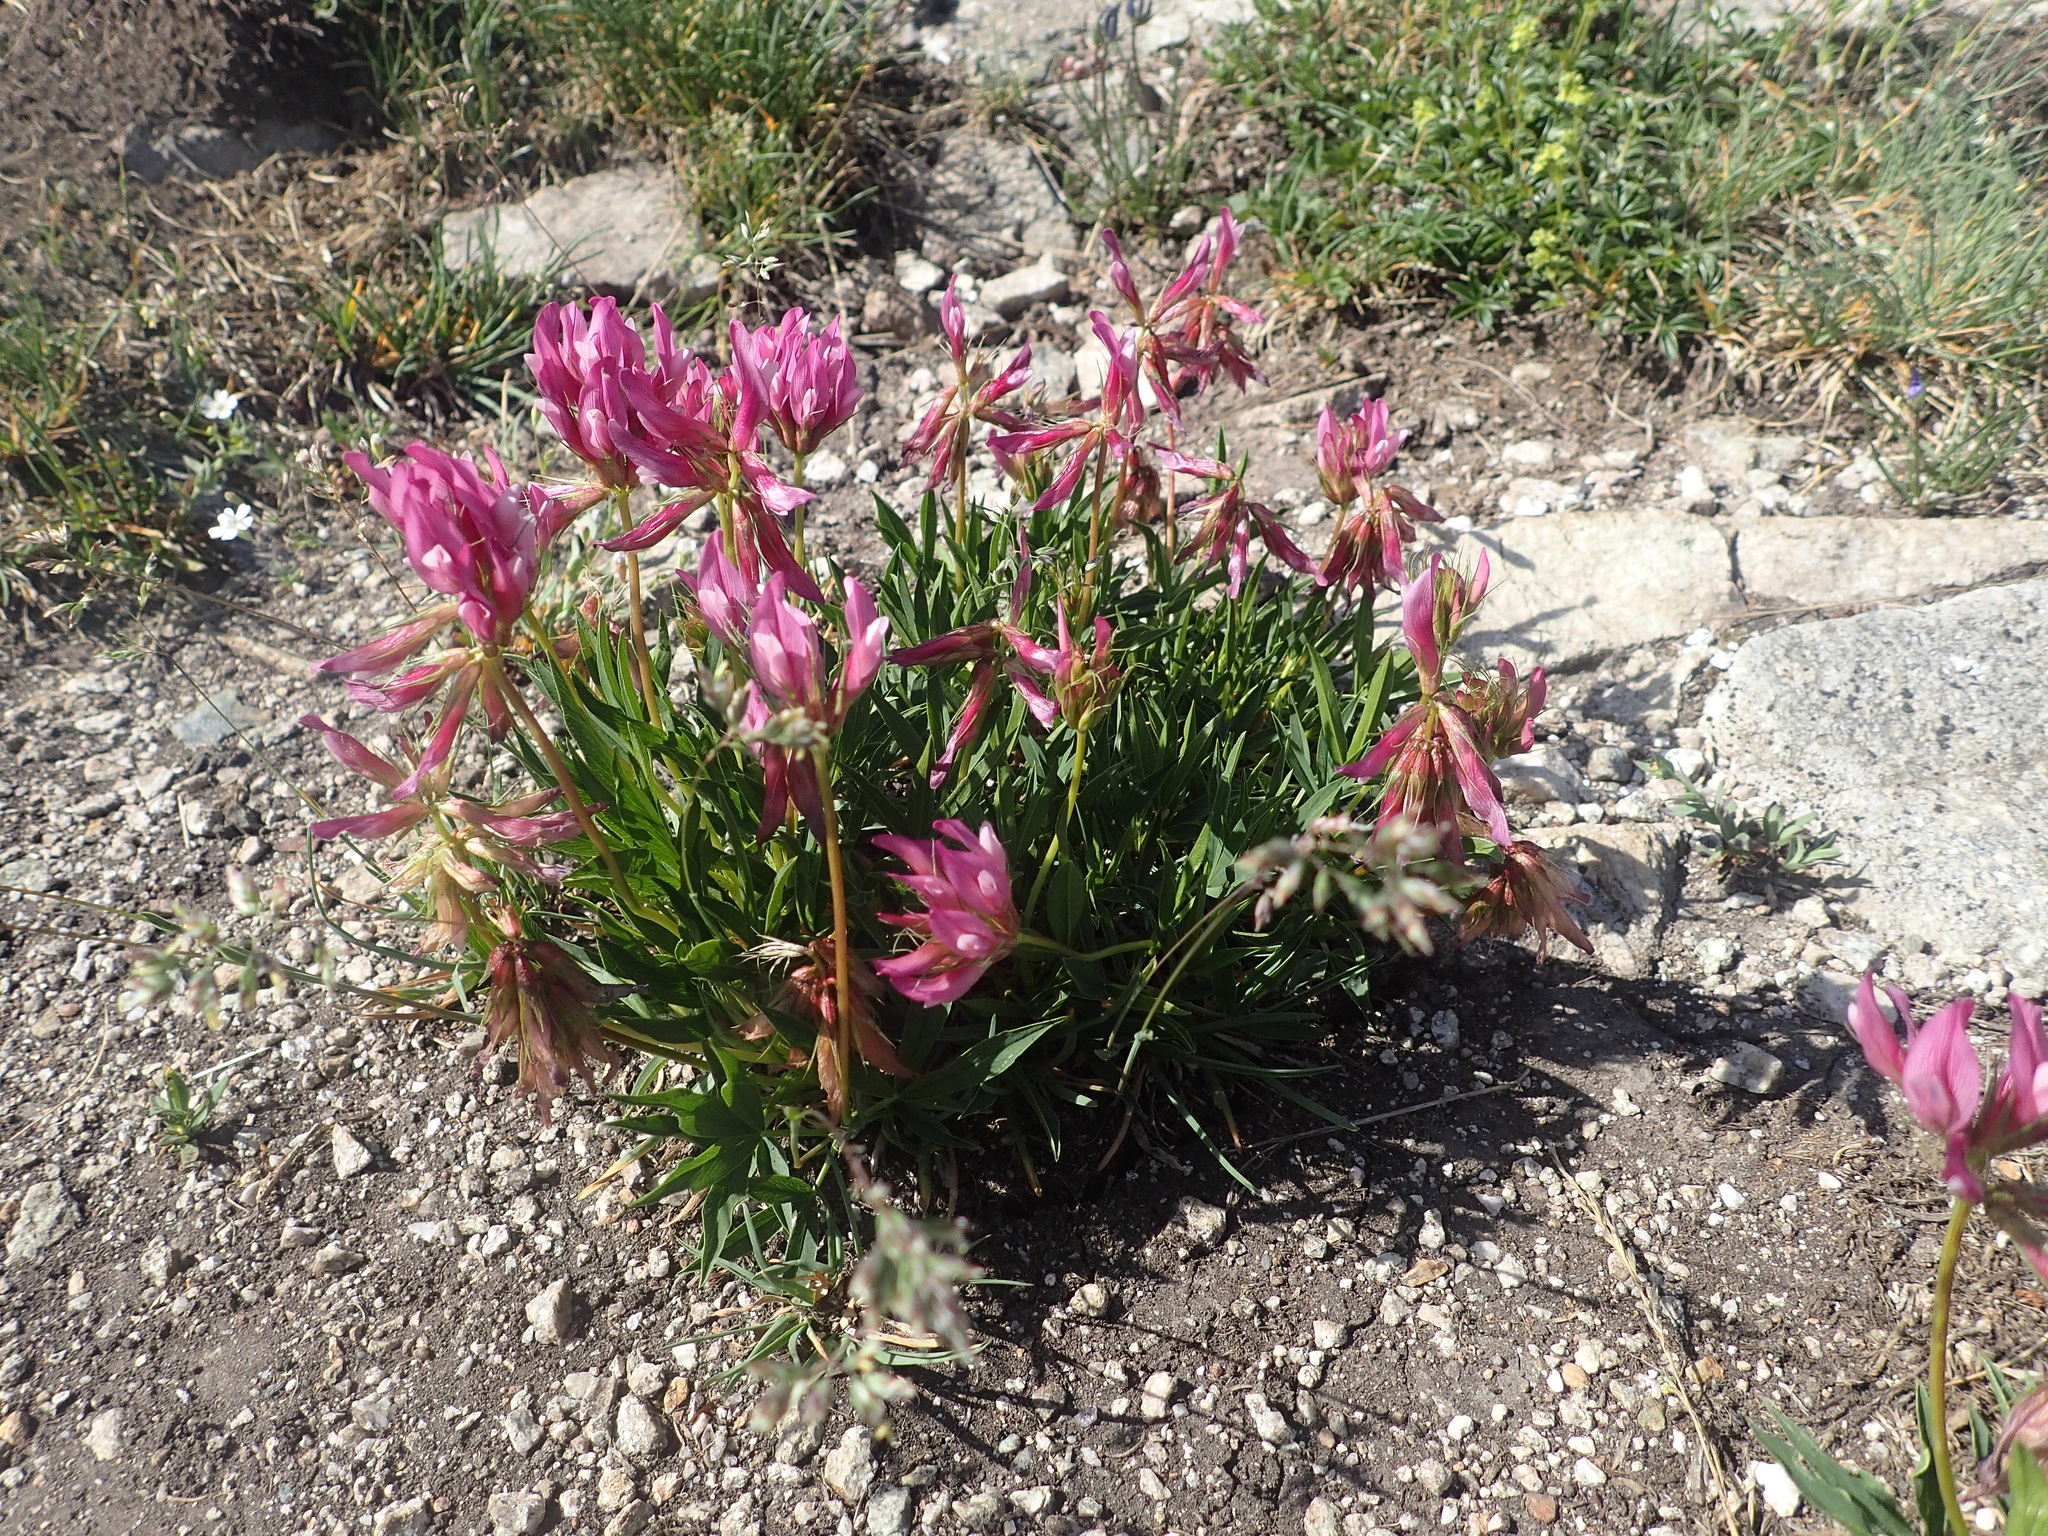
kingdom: Plantae
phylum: Tracheophyta
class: Magnoliopsida
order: Fabales
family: Fabaceae
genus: Trifolium
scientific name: Trifolium alpinum
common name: Alpine clover
